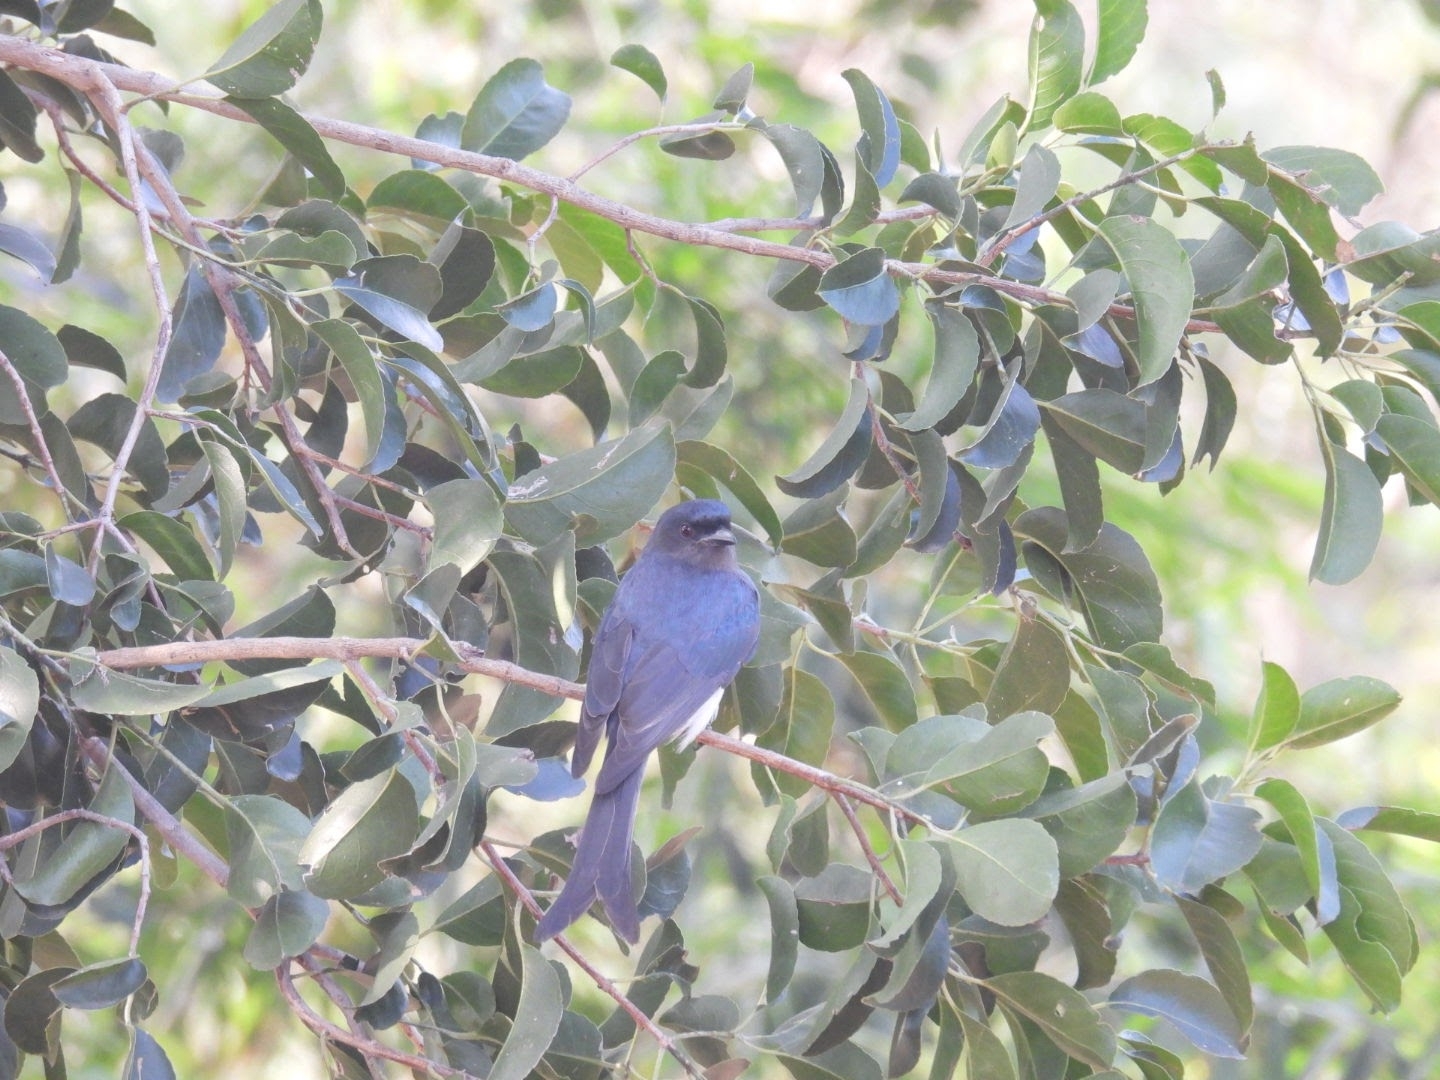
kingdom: Animalia
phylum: Chordata
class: Aves
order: Passeriformes
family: Dicruridae
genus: Dicrurus
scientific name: Dicrurus caerulescens
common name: White-bellied drongo
